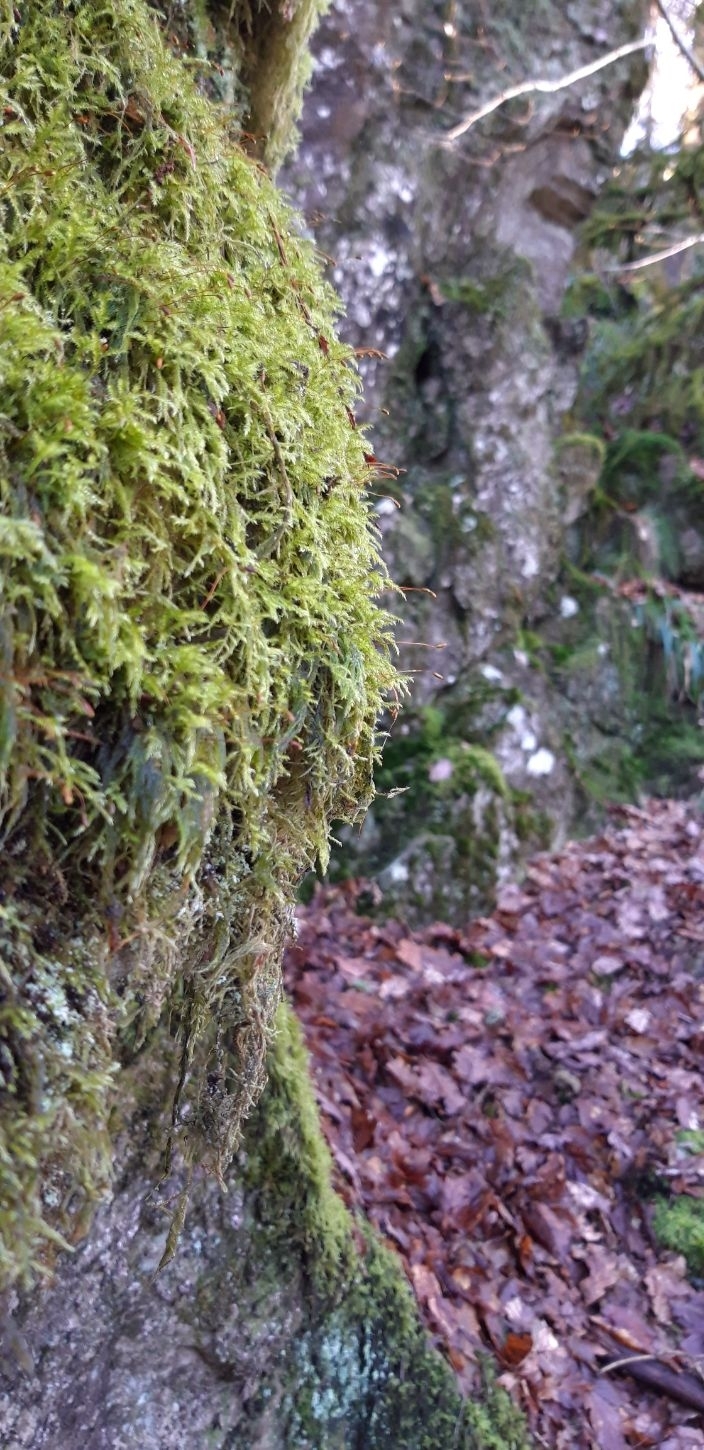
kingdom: Plantae
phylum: Bryophyta
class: Bryopsida
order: Hypnales
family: Hypnaceae
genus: Hypnum
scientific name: Hypnum cupressiforme
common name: Cypress-leaved plait-moss
